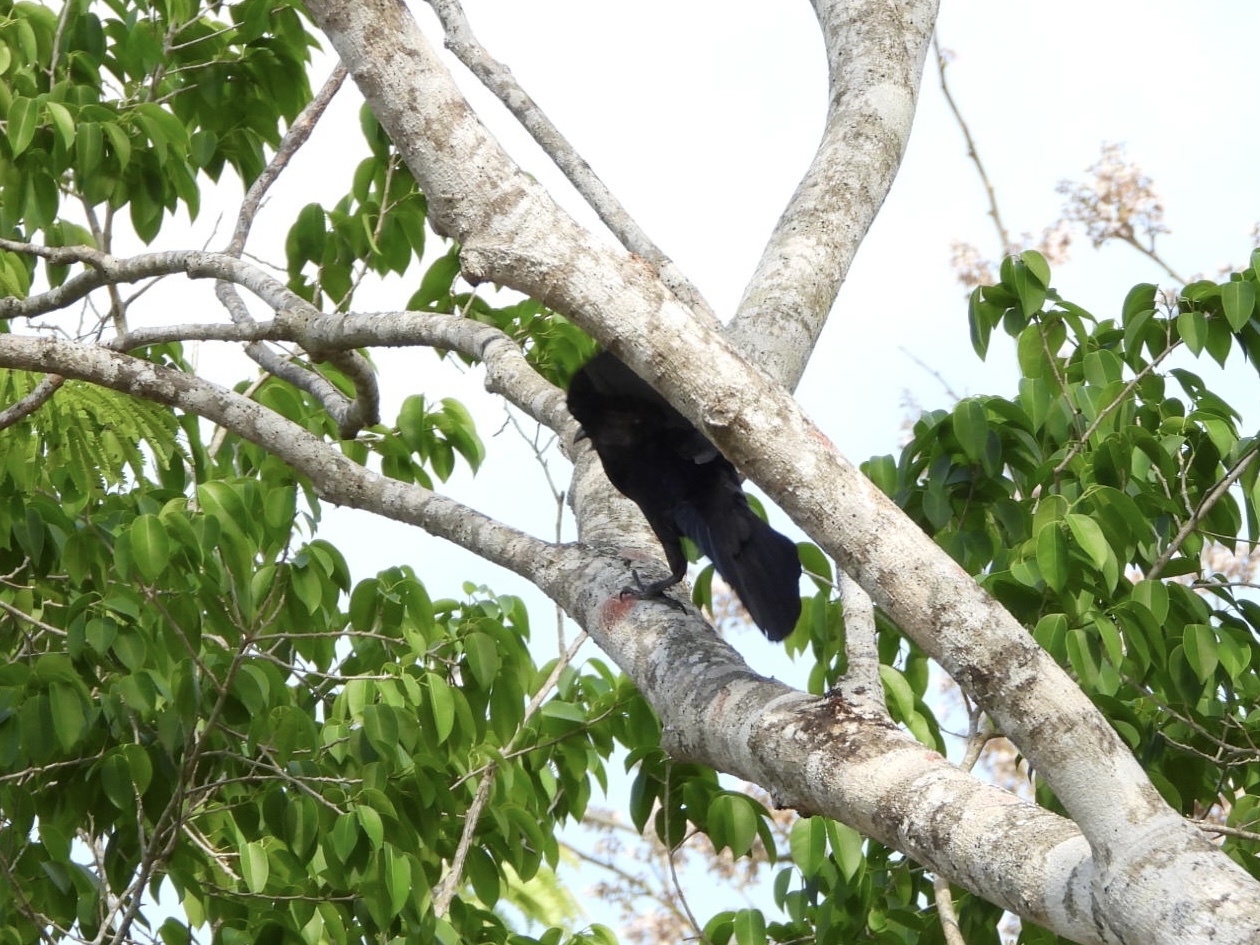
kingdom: Animalia
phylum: Chordata
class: Aves
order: Passeriformes
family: Icteridae
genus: Quiscalus
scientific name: Quiscalus mexicanus
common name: Great-tailed grackle
